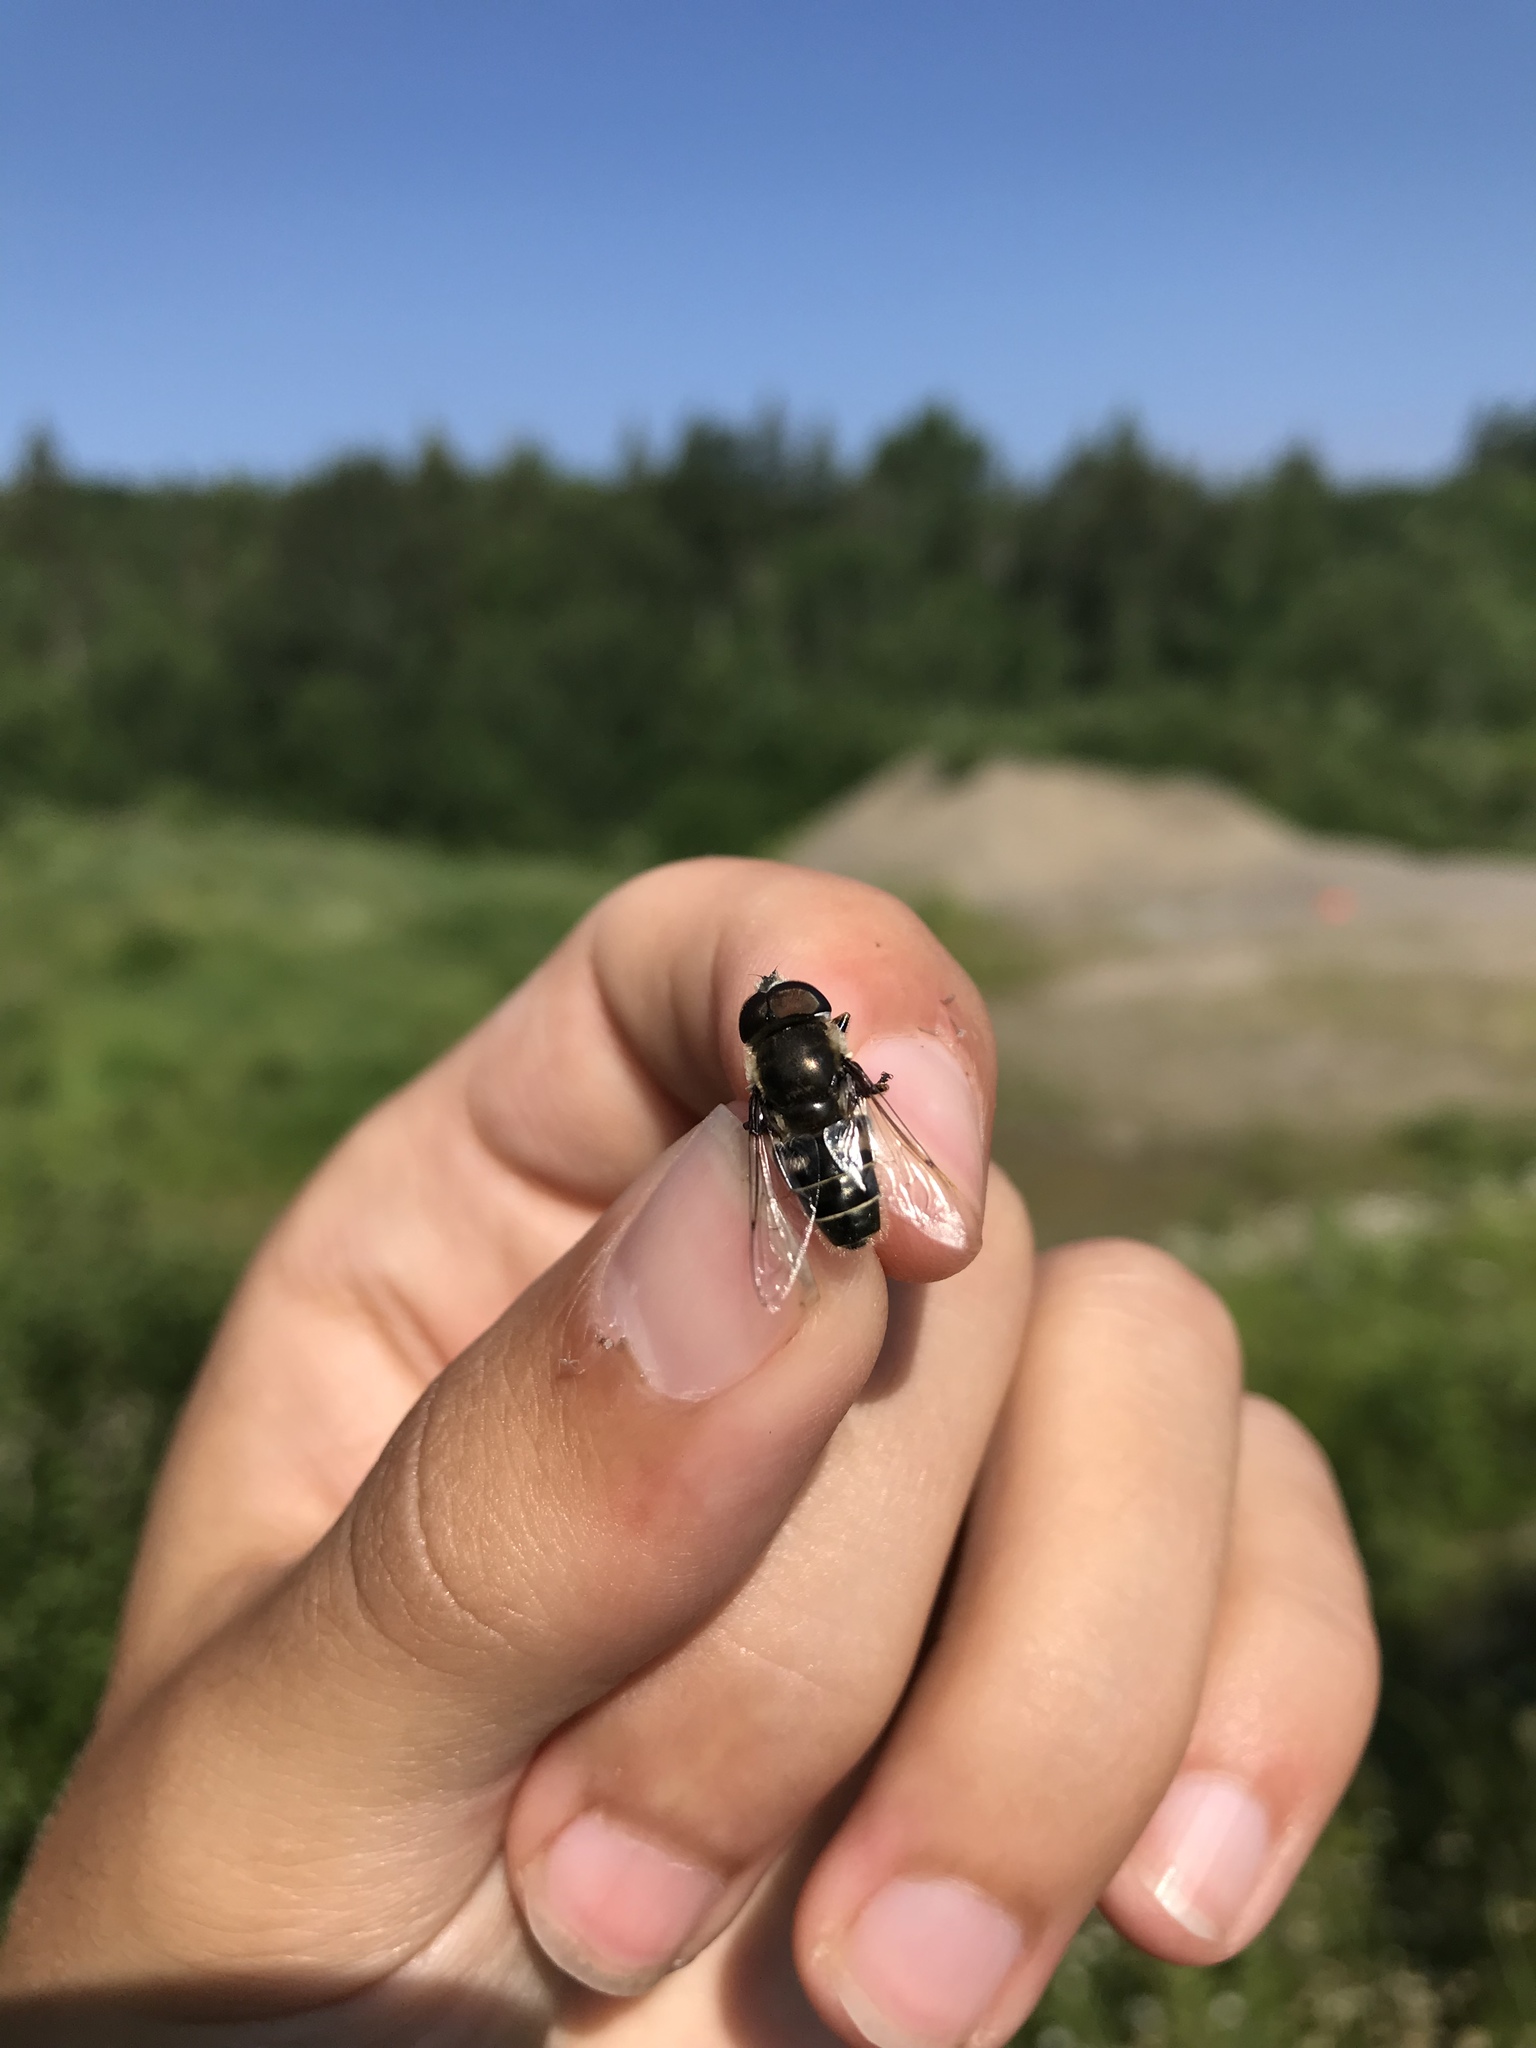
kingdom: Animalia
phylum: Arthropoda
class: Insecta
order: Diptera
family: Syrphidae
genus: Eristalis
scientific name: Eristalis dimidiata
